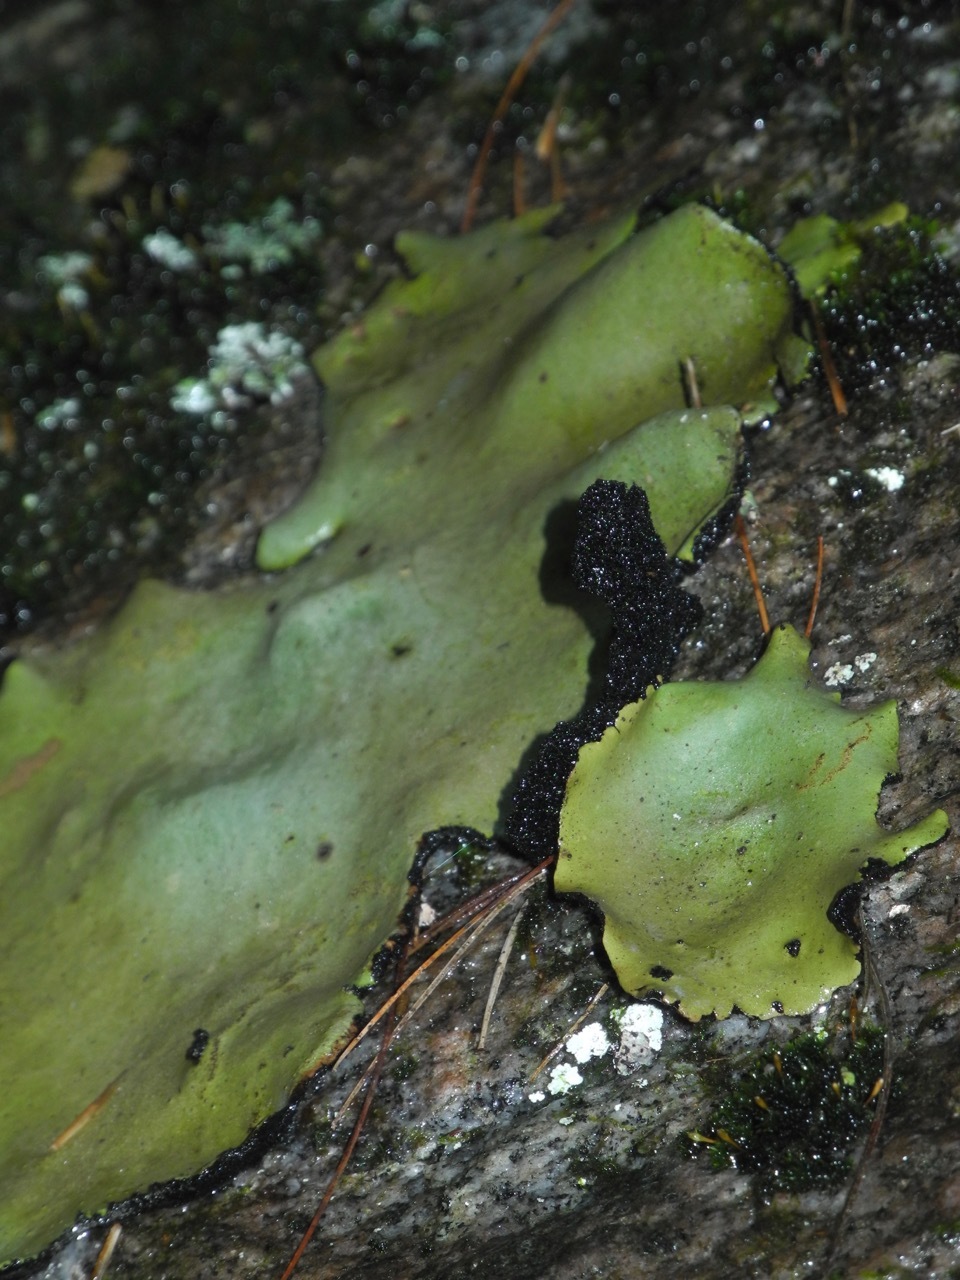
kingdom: Fungi
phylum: Ascomycota
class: Lecanoromycetes
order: Umbilicariales
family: Umbilicariaceae
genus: Umbilicaria
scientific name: Umbilicaria mammulata
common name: Smooth rock tripe
